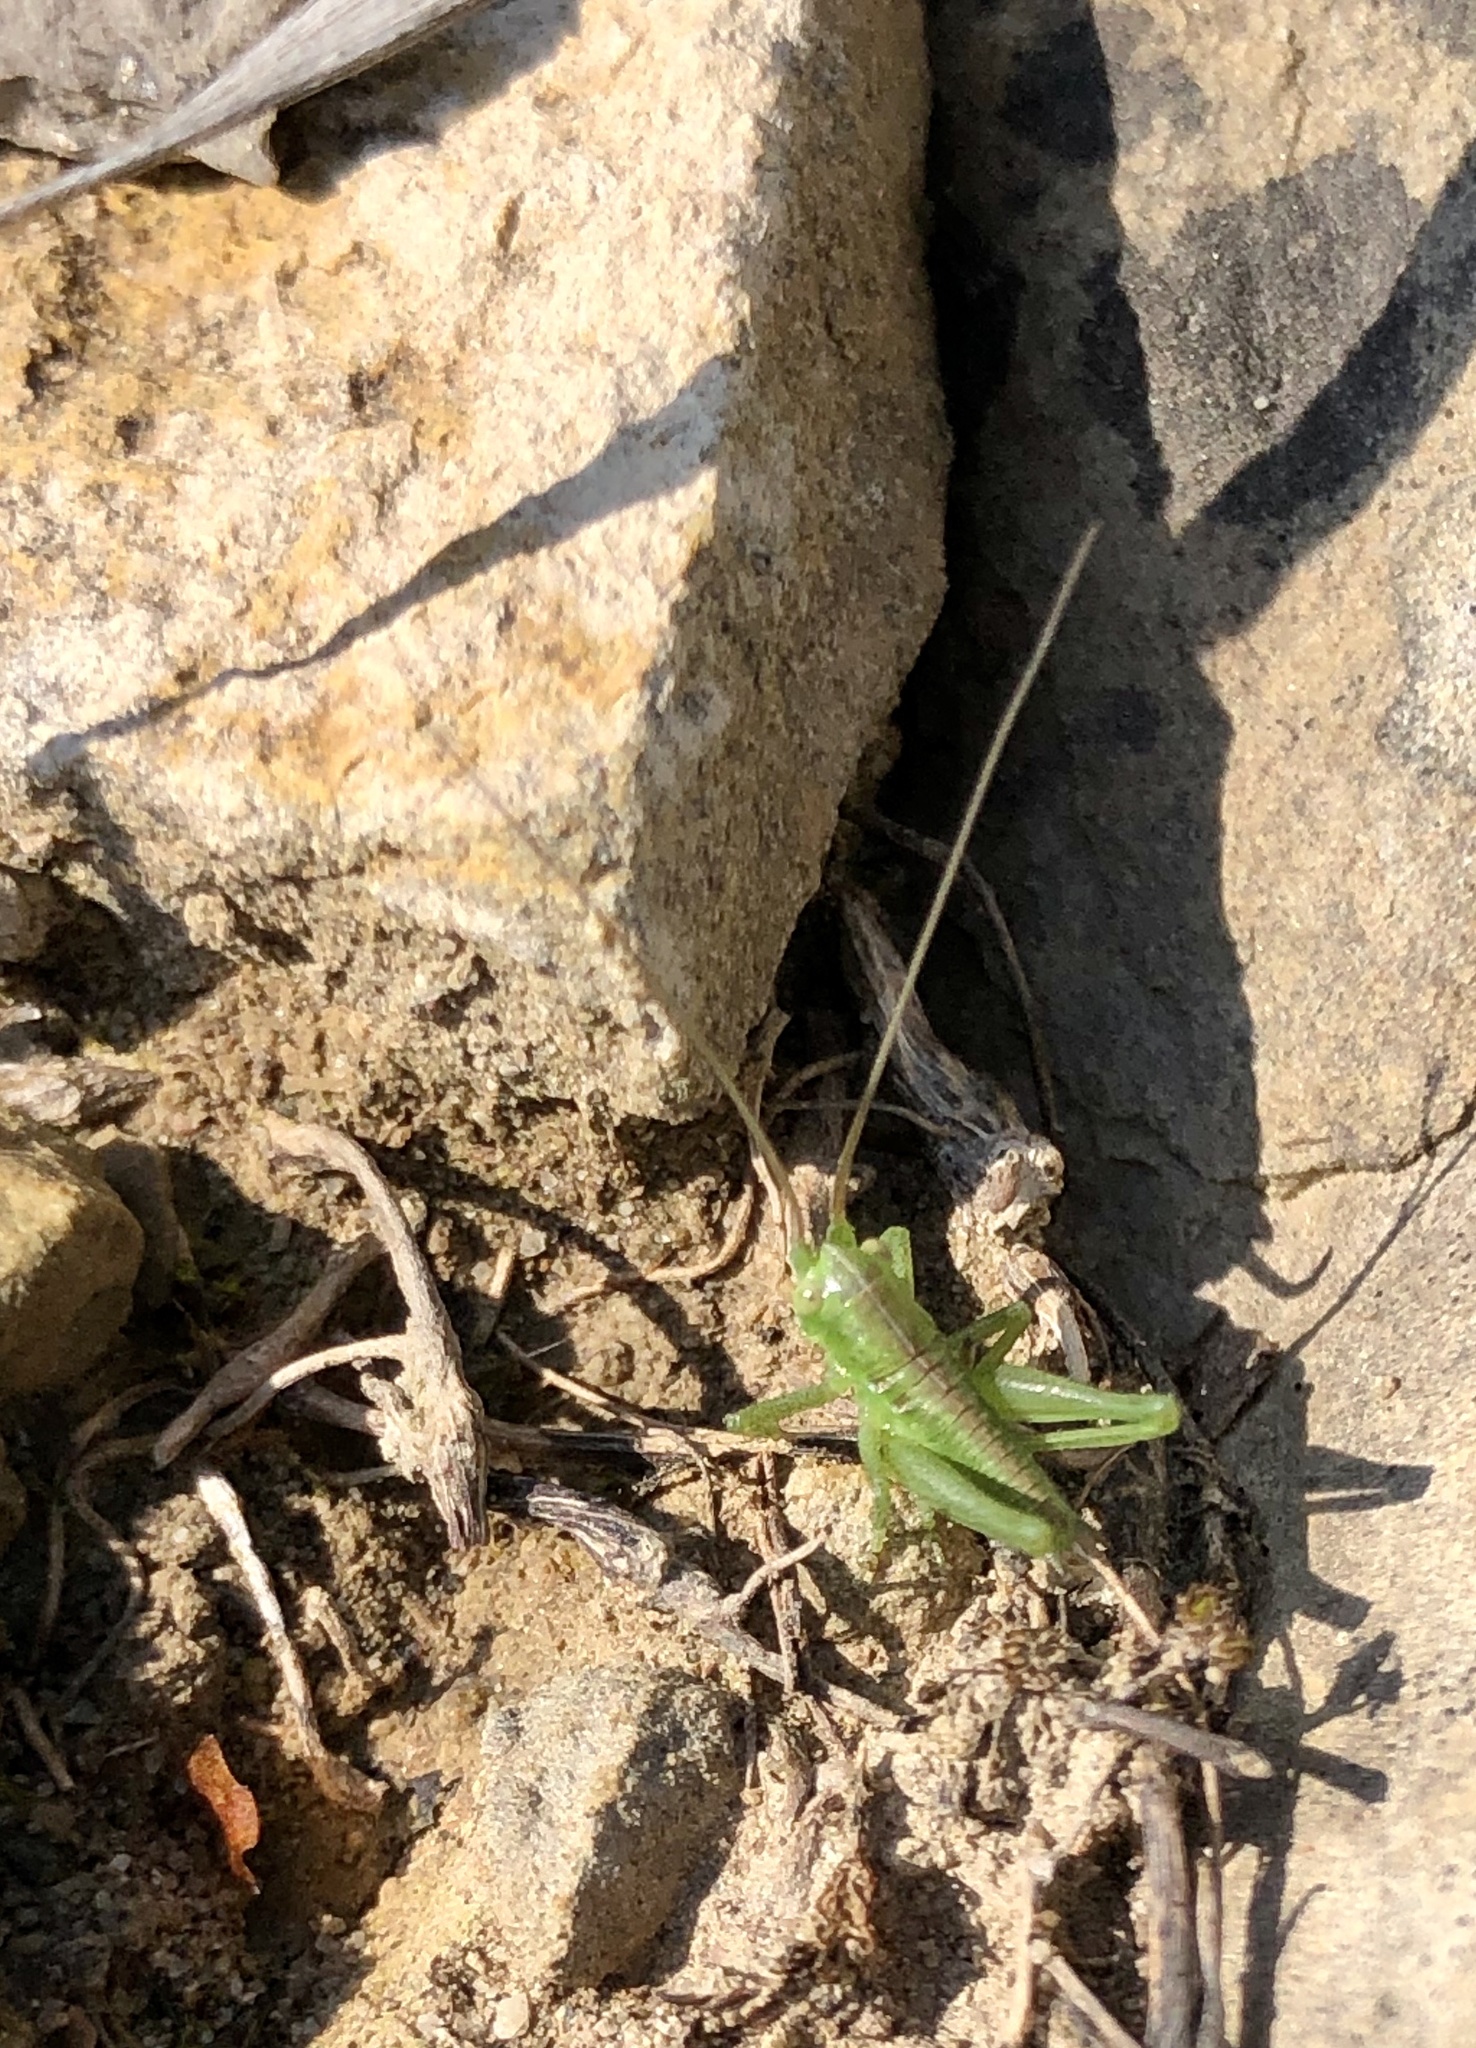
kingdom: Animalia
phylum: Arthropoda
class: Insecta
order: Orthoptera
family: Tettigoniidae
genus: Tettigonia
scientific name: Tettigonia viridissima
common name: Great green bush-cricket
